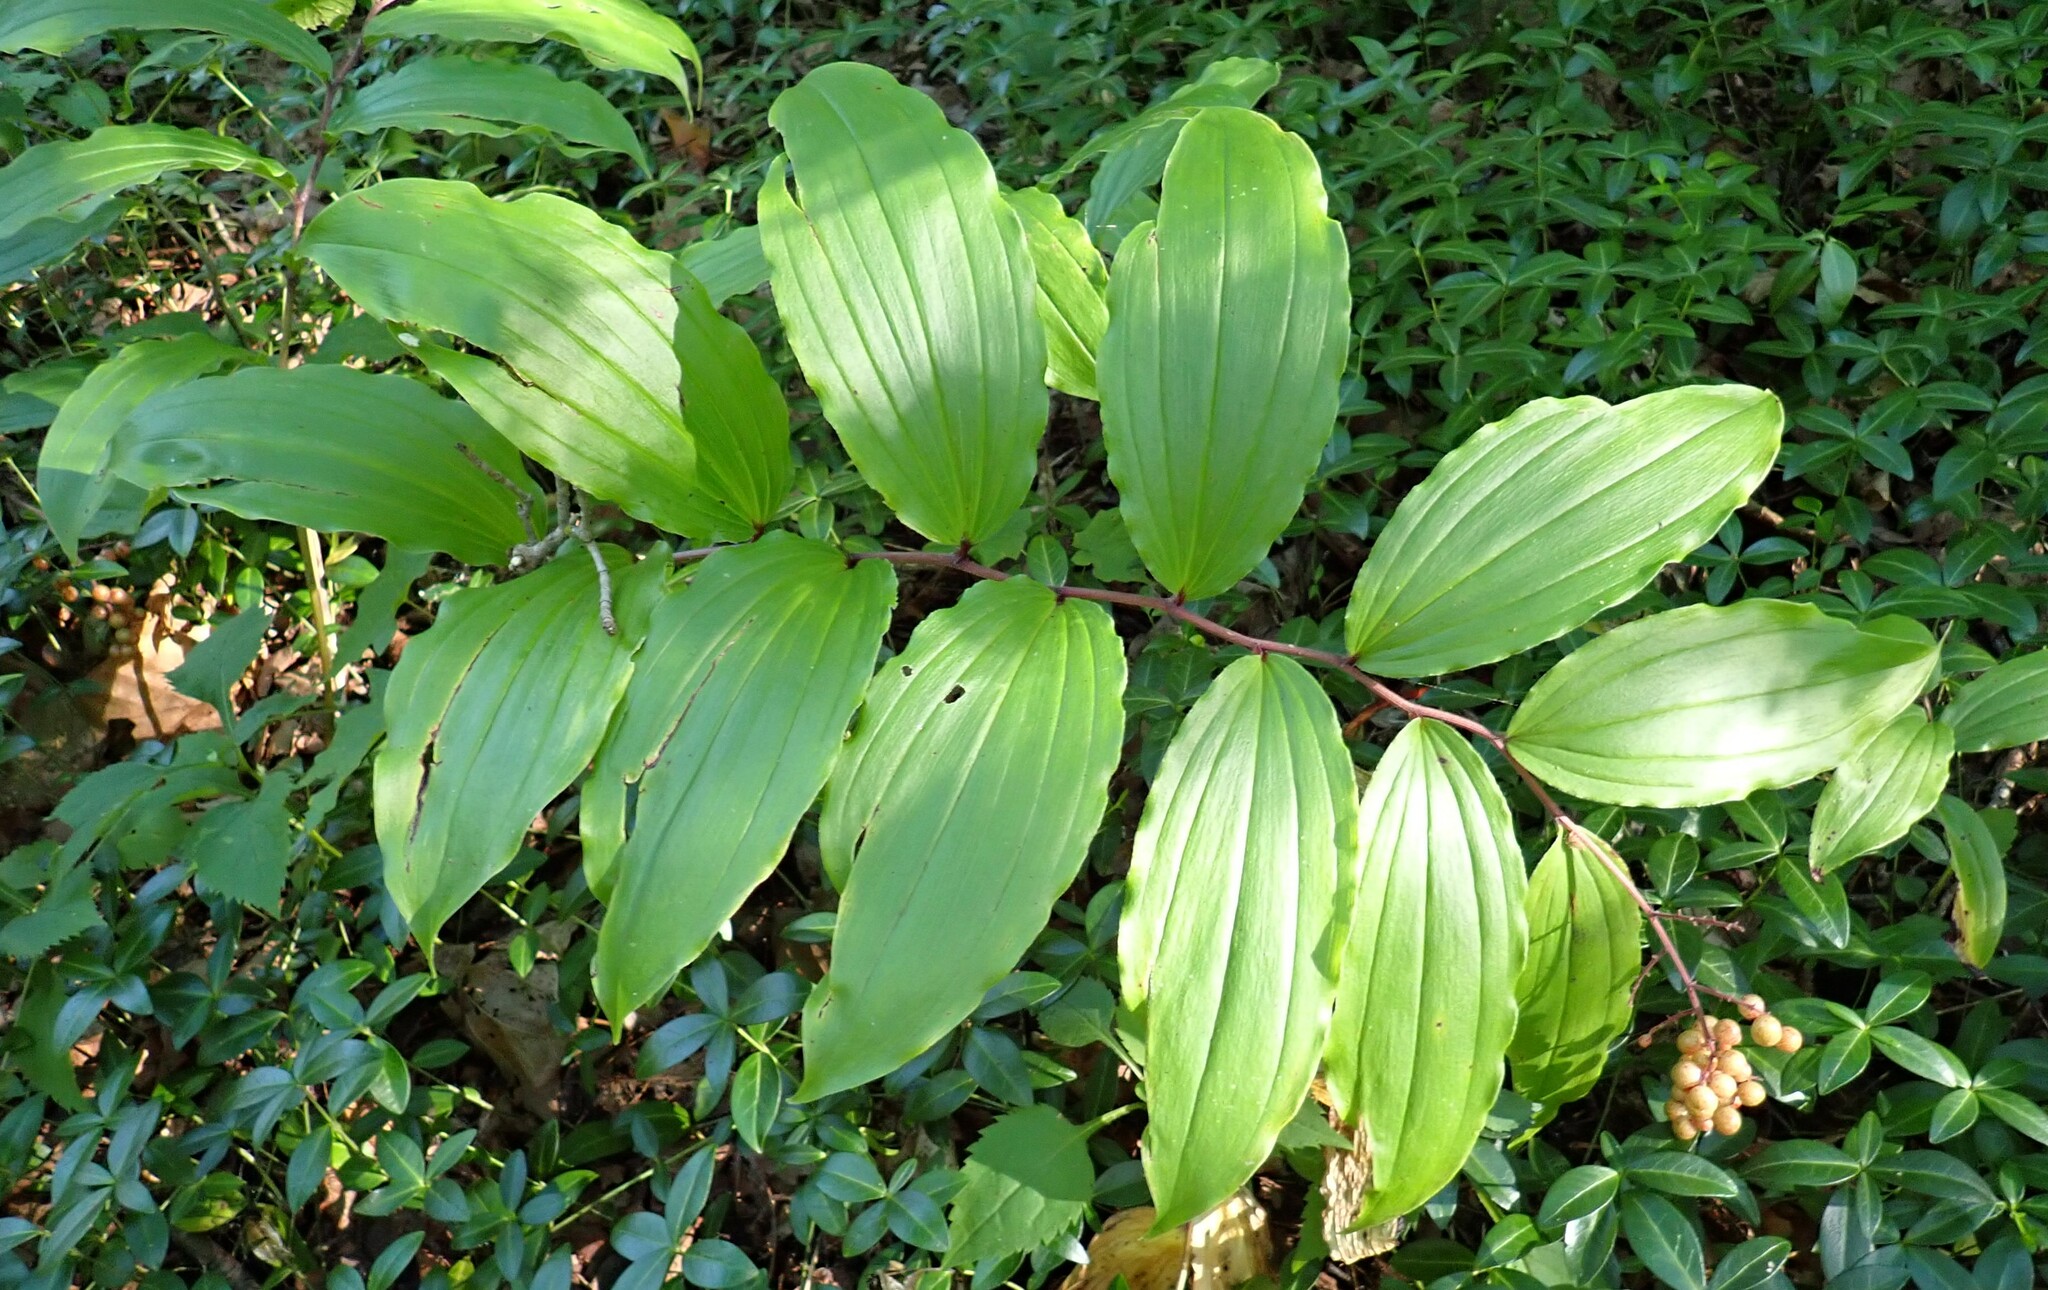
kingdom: Plantae
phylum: Tracheophyta
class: Liliopsida
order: Asparagales
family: Asparagaceae
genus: Maianthemum
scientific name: Maianthemum racemosum
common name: False spikenard
